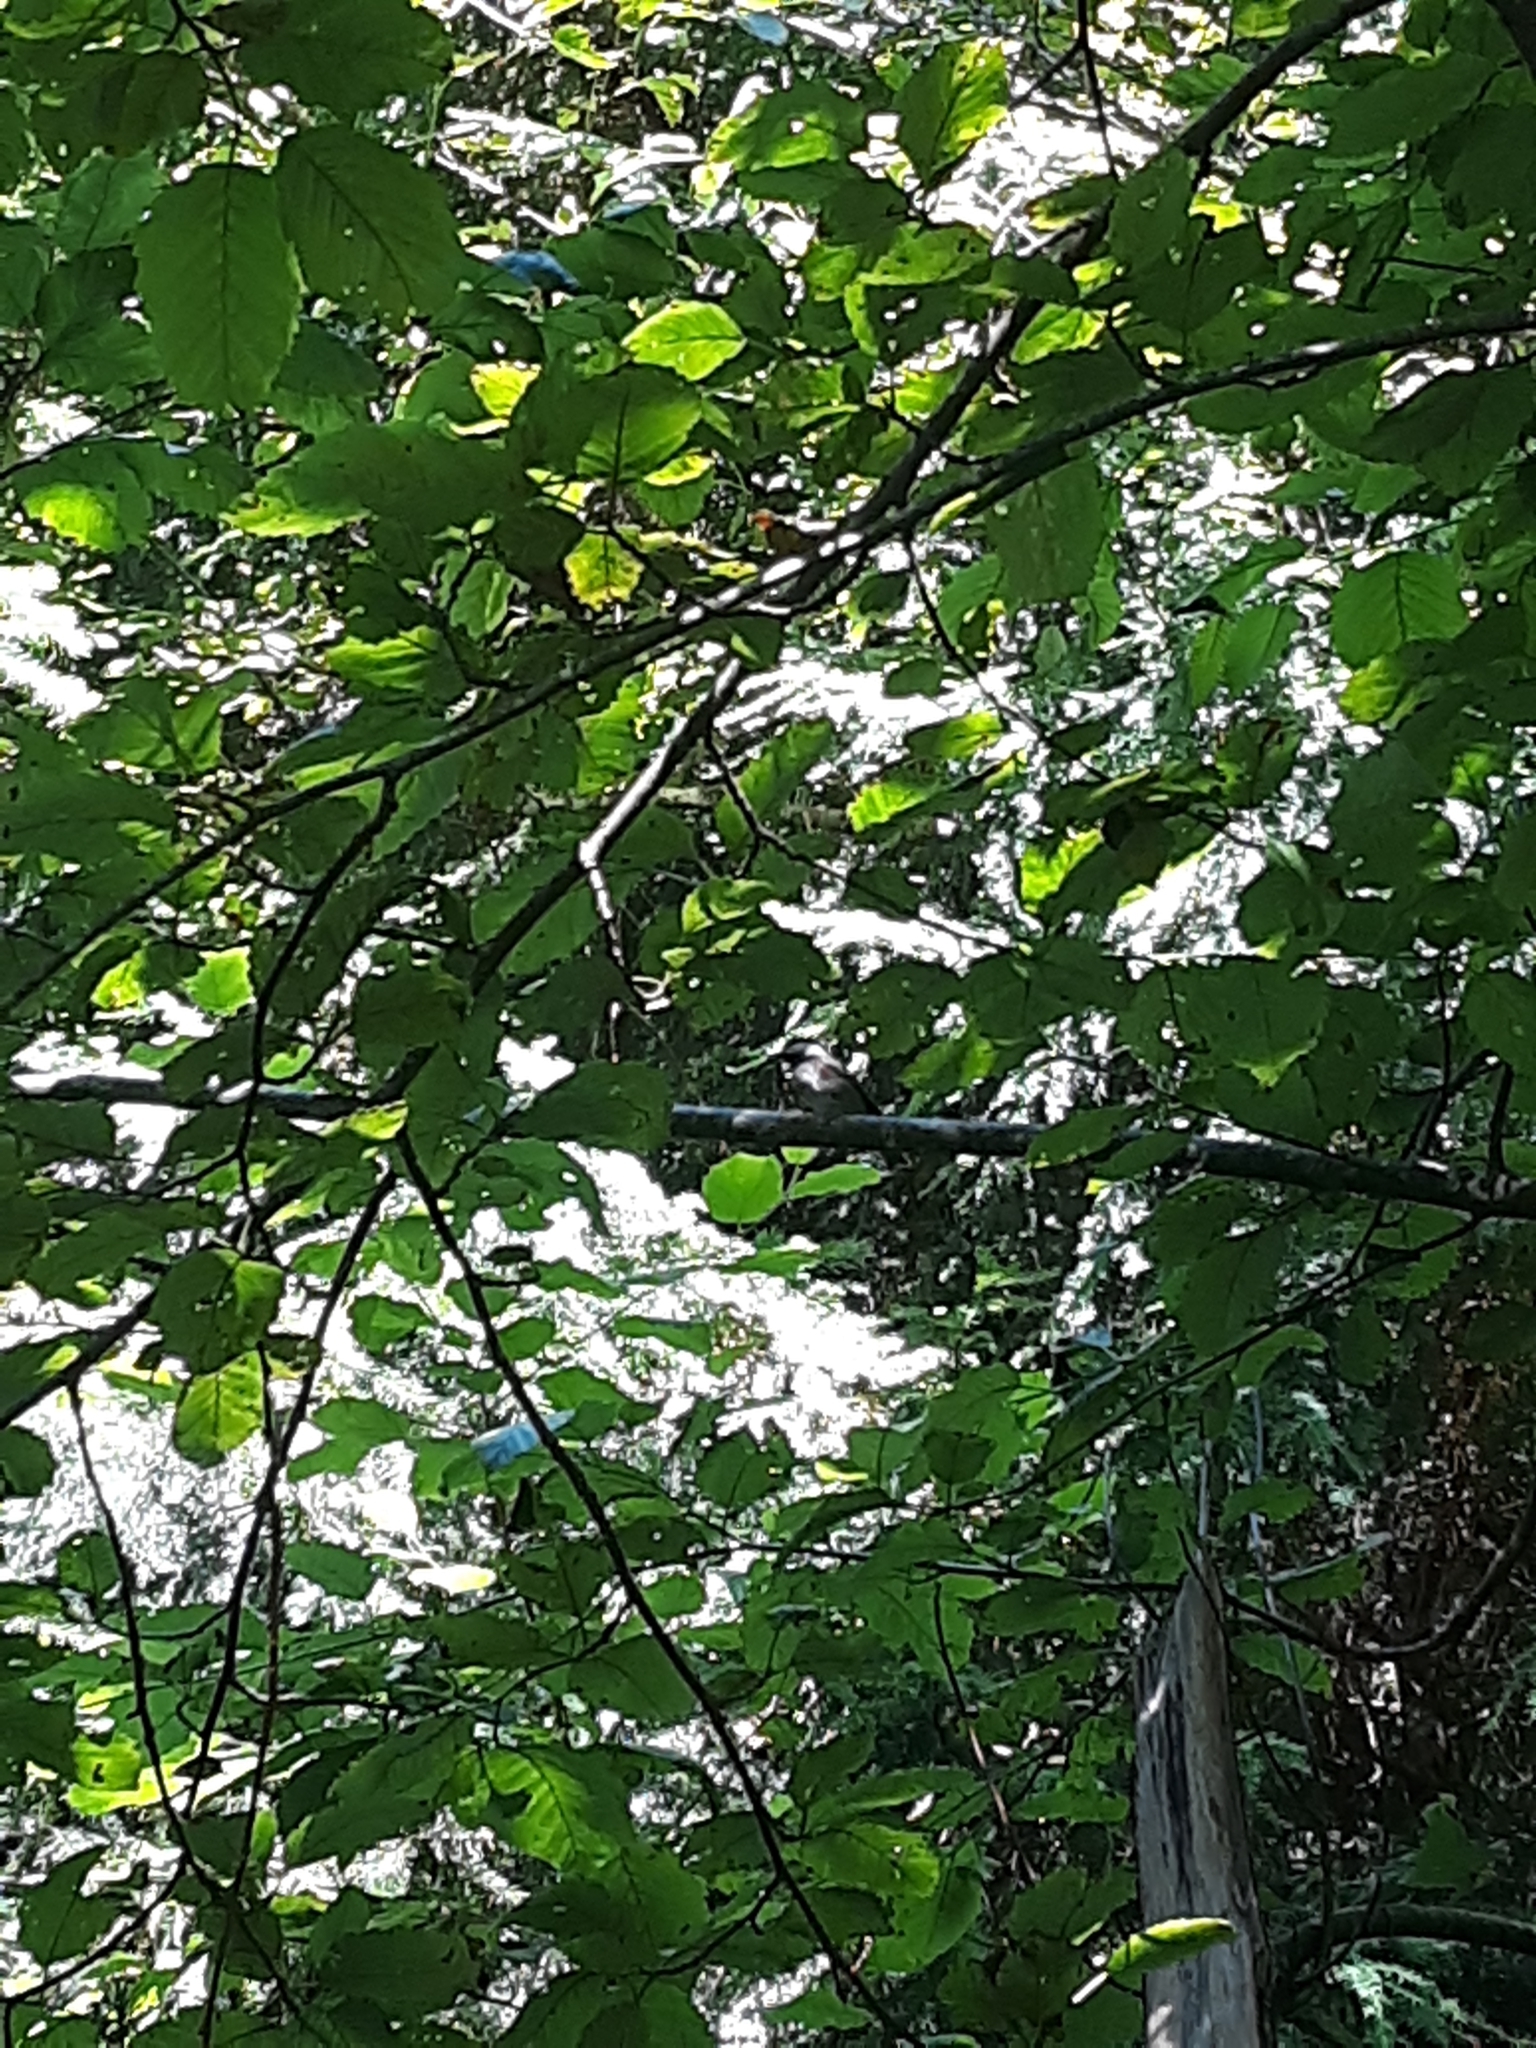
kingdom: Animalia
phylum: Chordata
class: Aves
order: Passeriformes
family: Paridae
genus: Poecile
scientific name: Poecile rufescens
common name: Chestnut-backed chickadee
